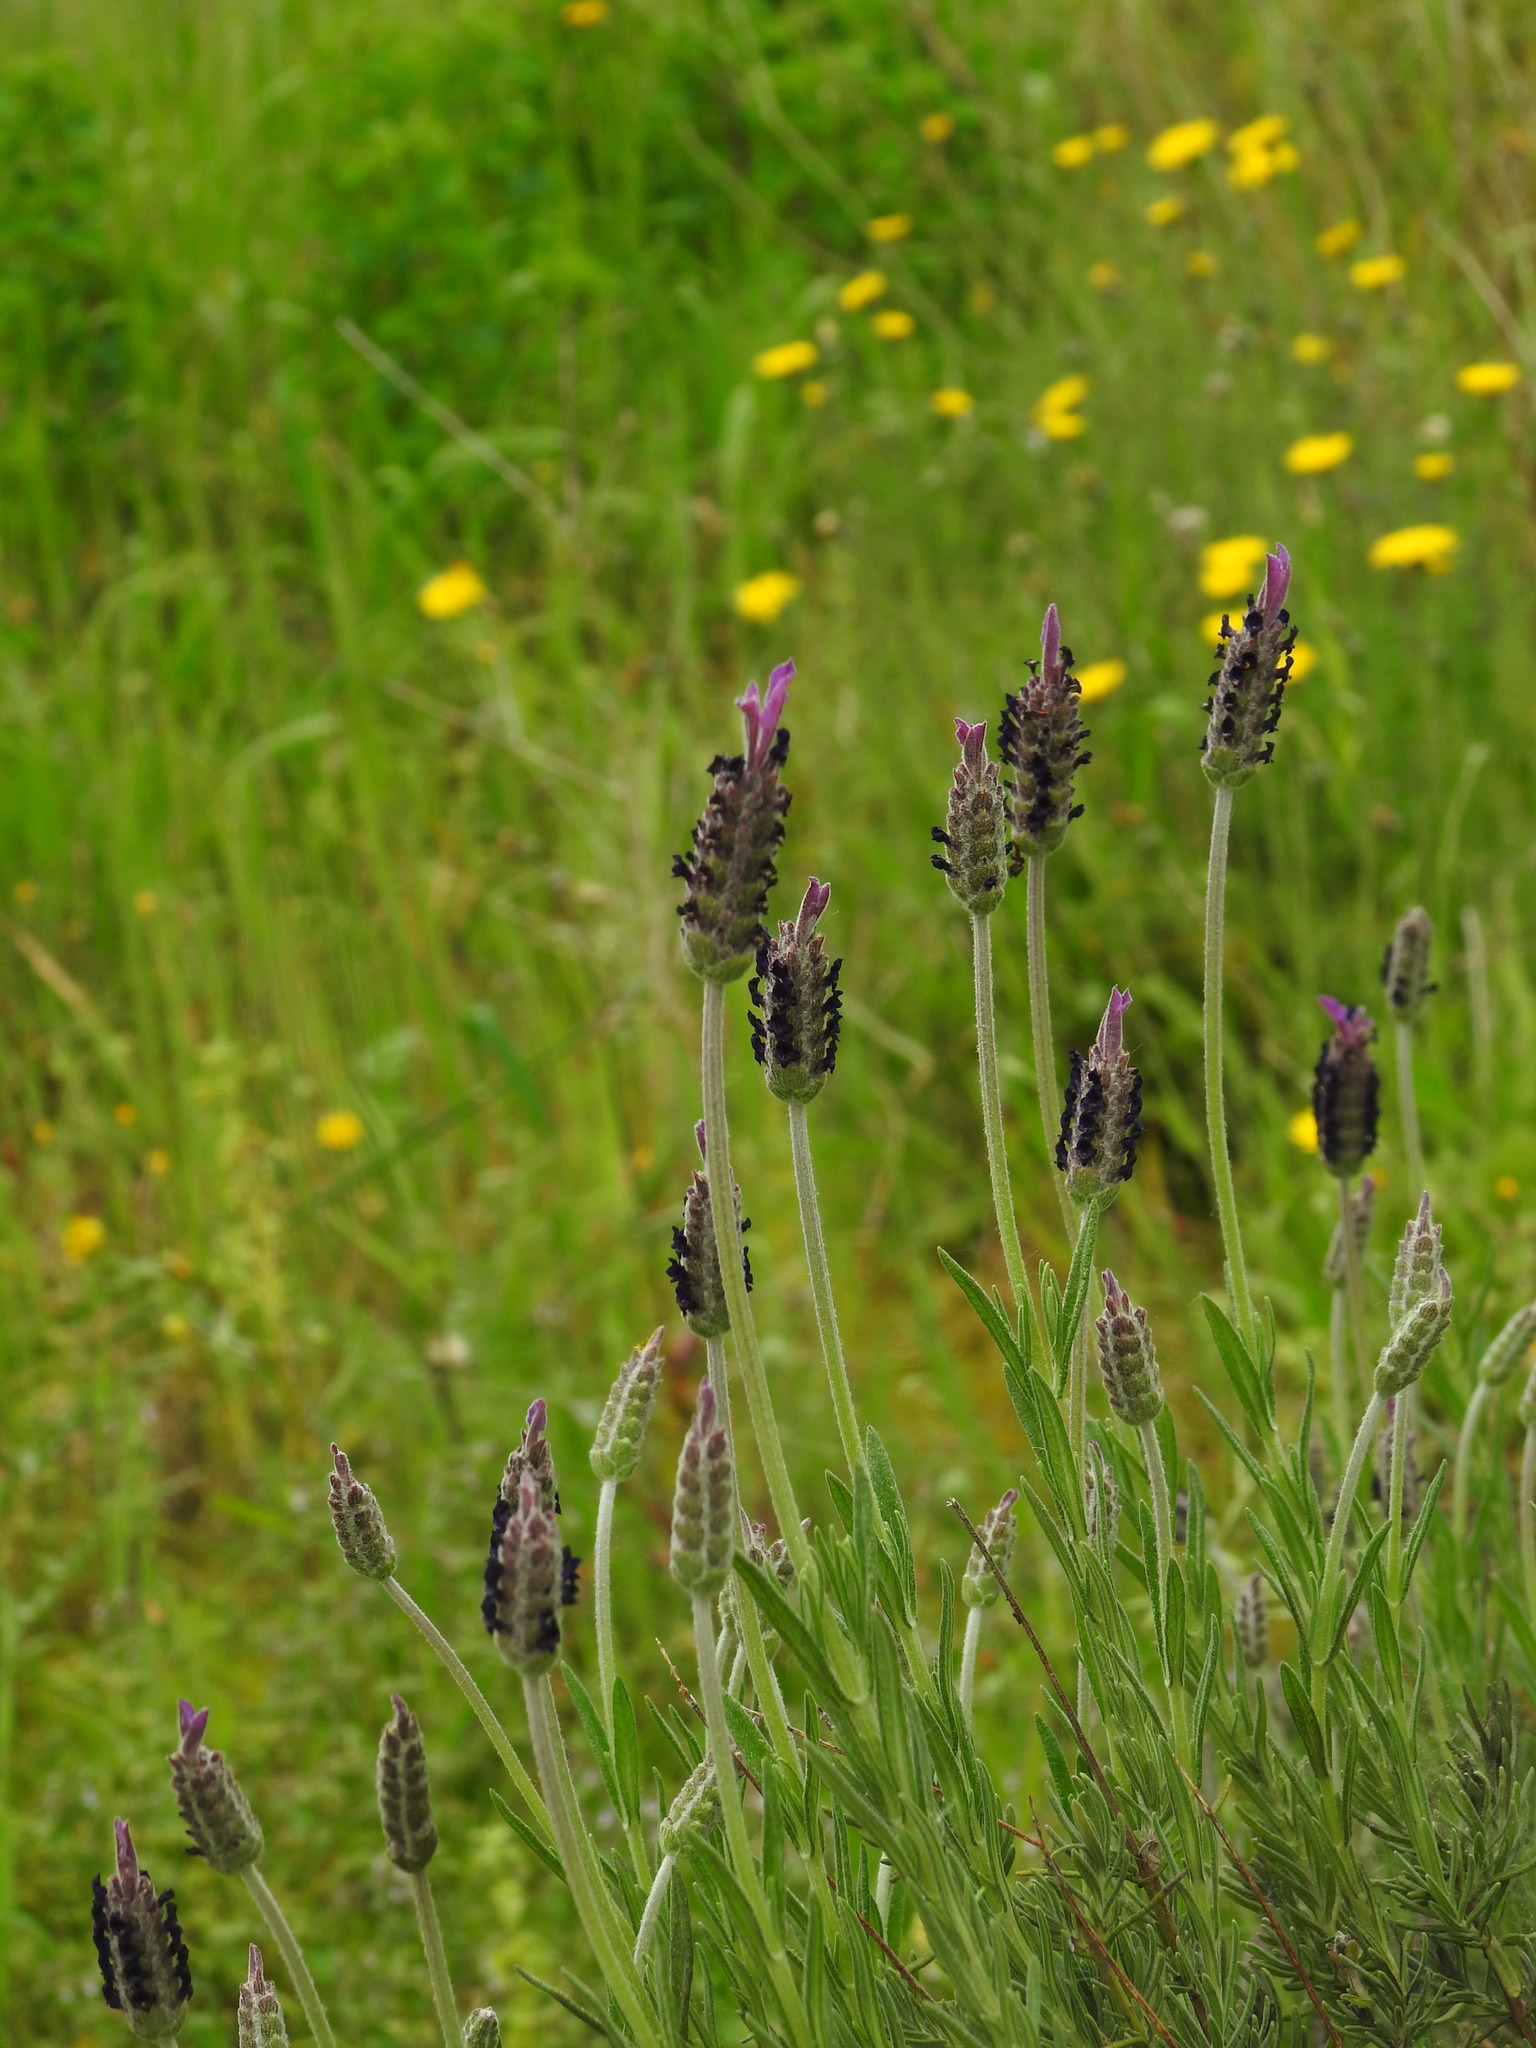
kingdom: Plantae
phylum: Tracheophyta
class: Magnoliopsida
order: Lamiales
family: Lamiaceae
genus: Lavandula
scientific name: Lavandula pedunculata
